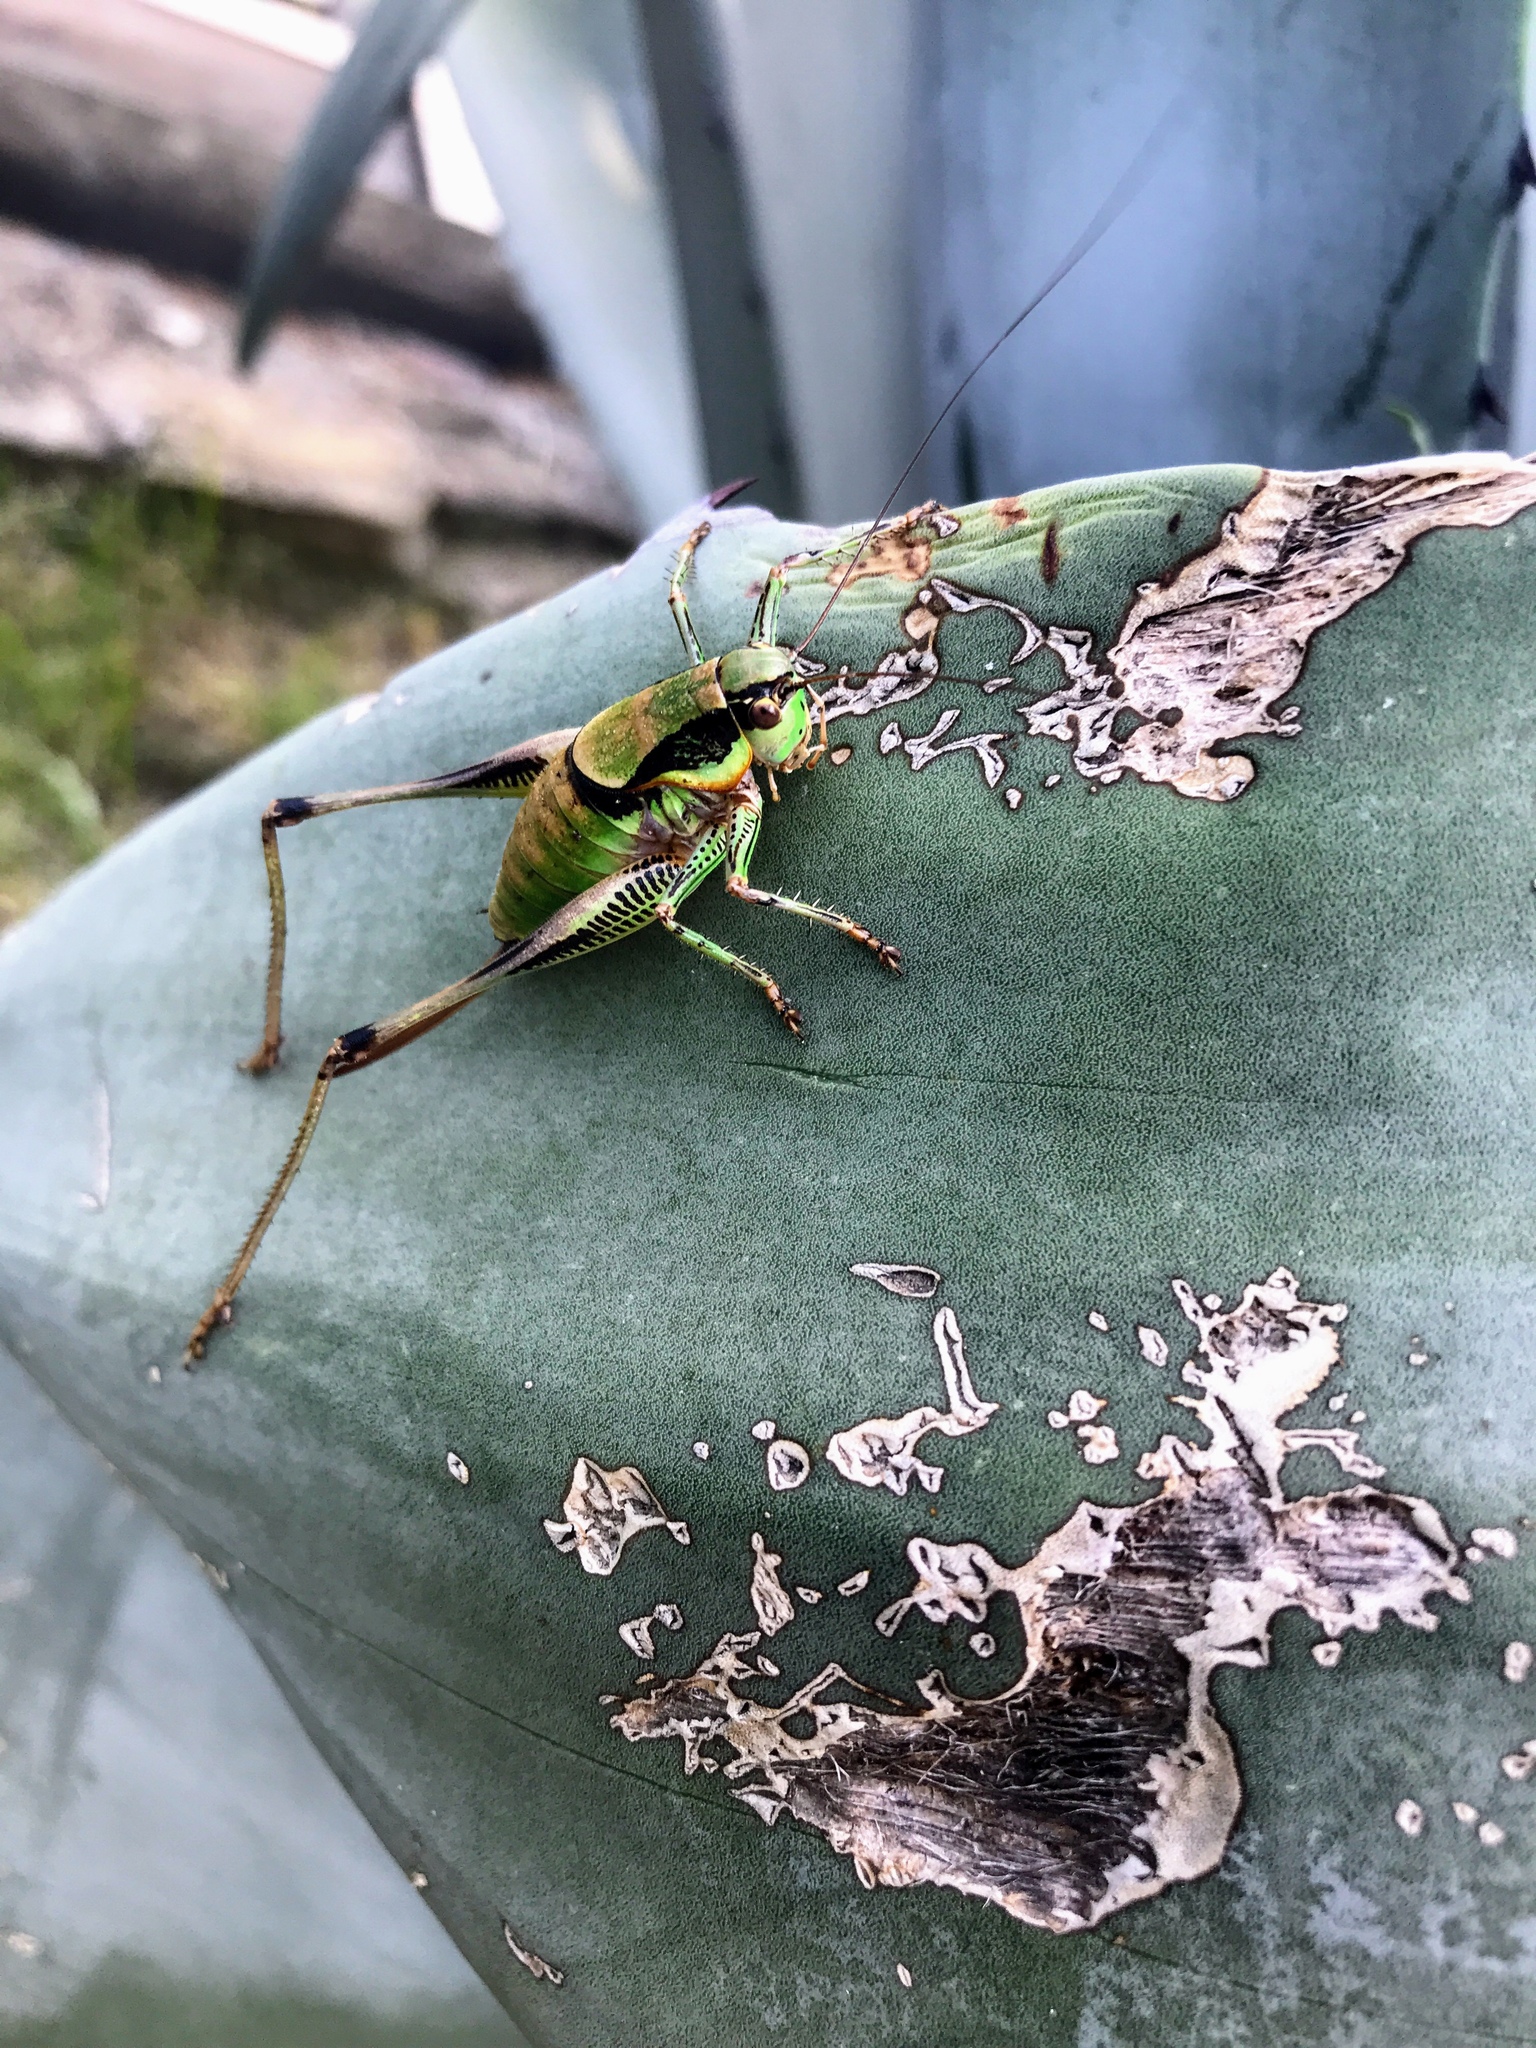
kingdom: Animalia
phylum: Arthropoda
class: Insecta
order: Orthoptera
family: Tettigoniidae
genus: Eupholidoptera
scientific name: Eupholidoptera schmidti
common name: Schmidt's marbled bush-cricket
